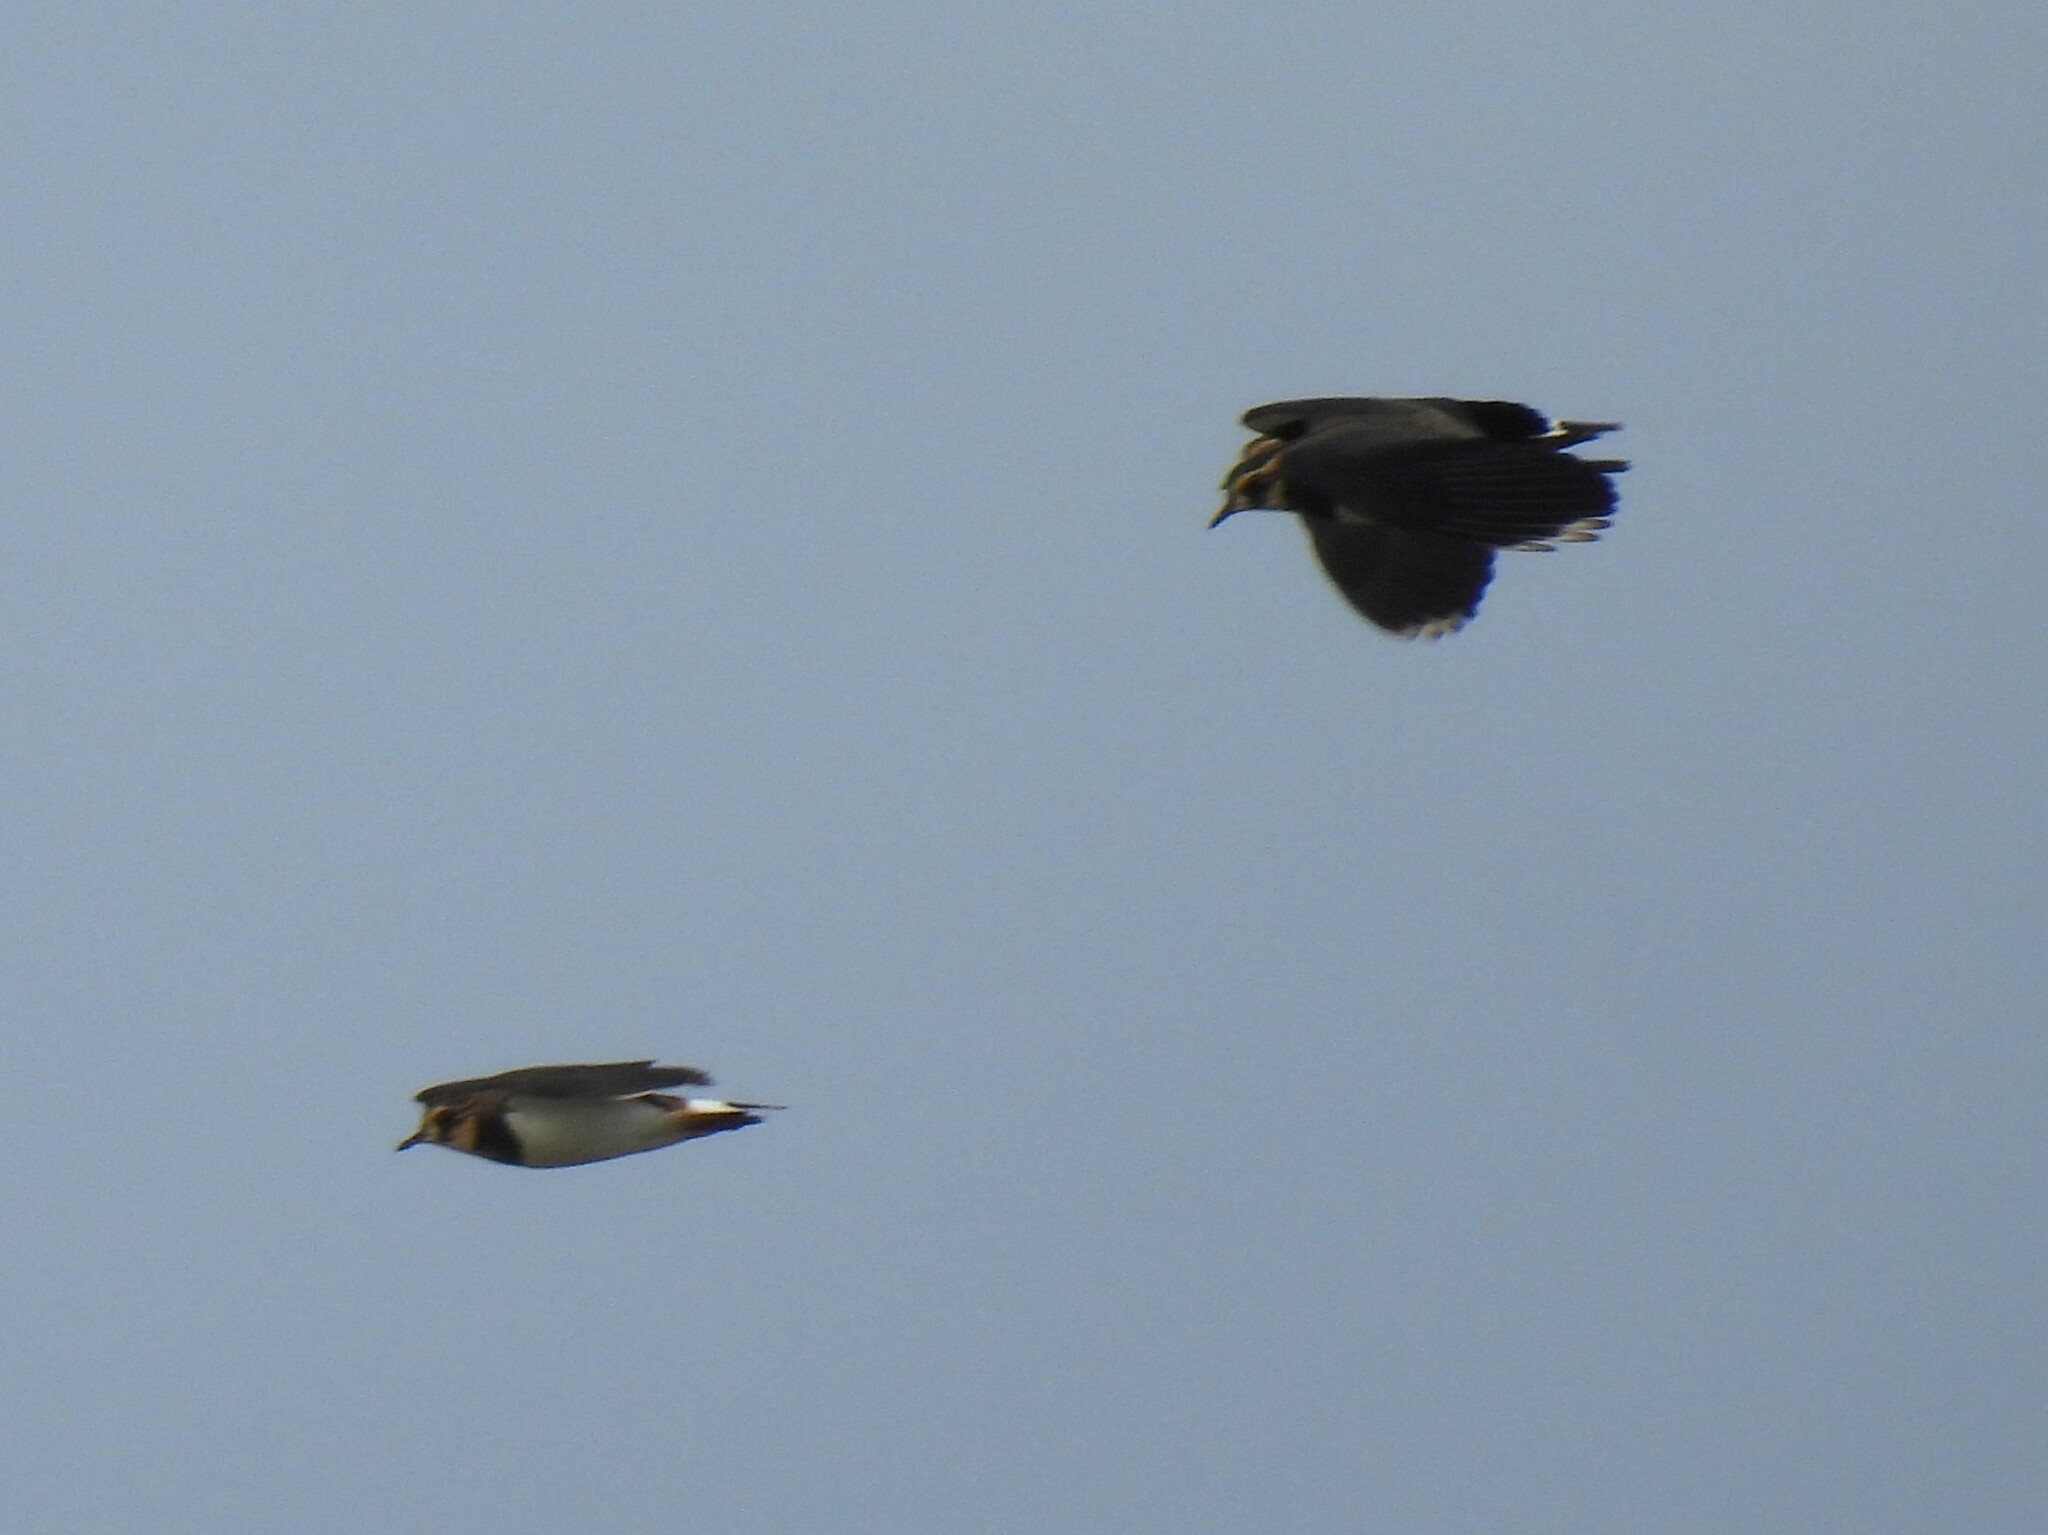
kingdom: Animalia
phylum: Chordata
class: Aves
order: Charadriiformes
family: Charadriidae
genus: Vanellus
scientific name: Vanellus vanellus
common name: Northern lapwing
